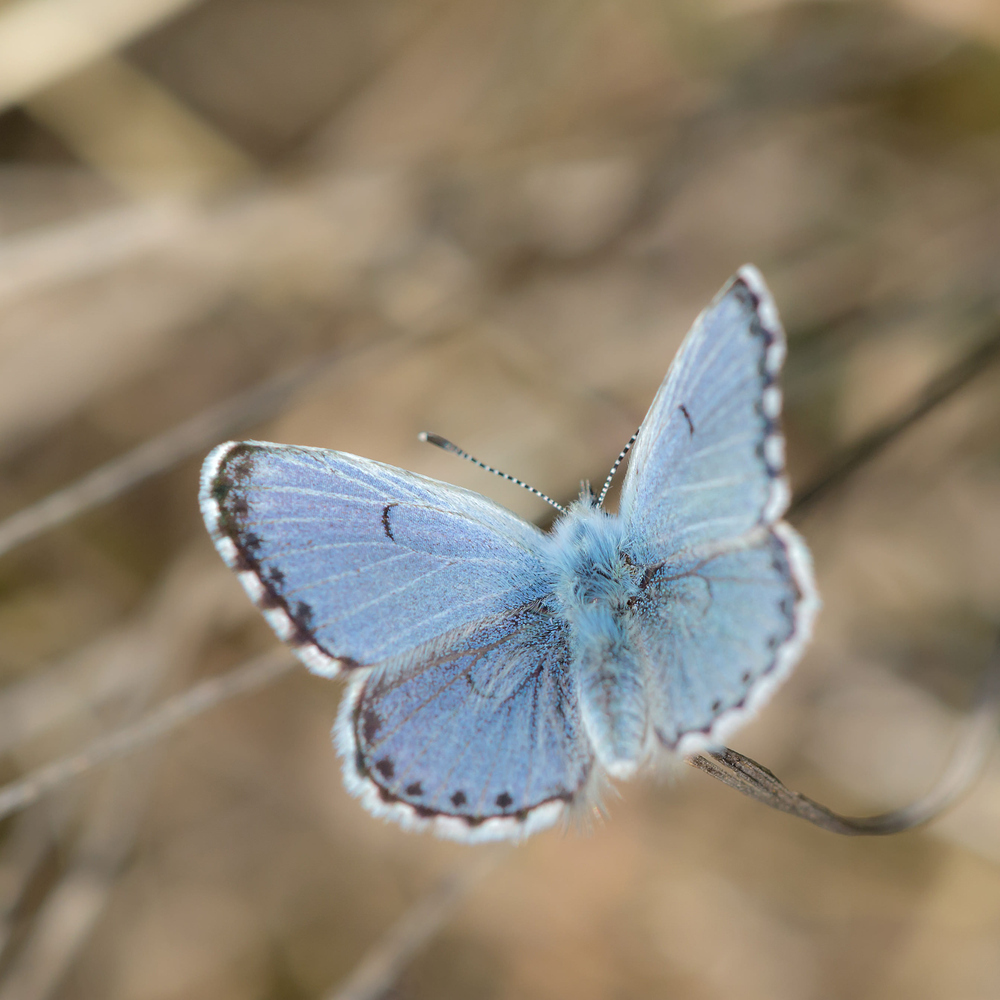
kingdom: Animalia
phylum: Arthropoda
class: Insecta
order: Lepidoptera
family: Lycaenidae
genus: Pseudophilotes
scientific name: Pseudophilotes baton
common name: Baton blue
